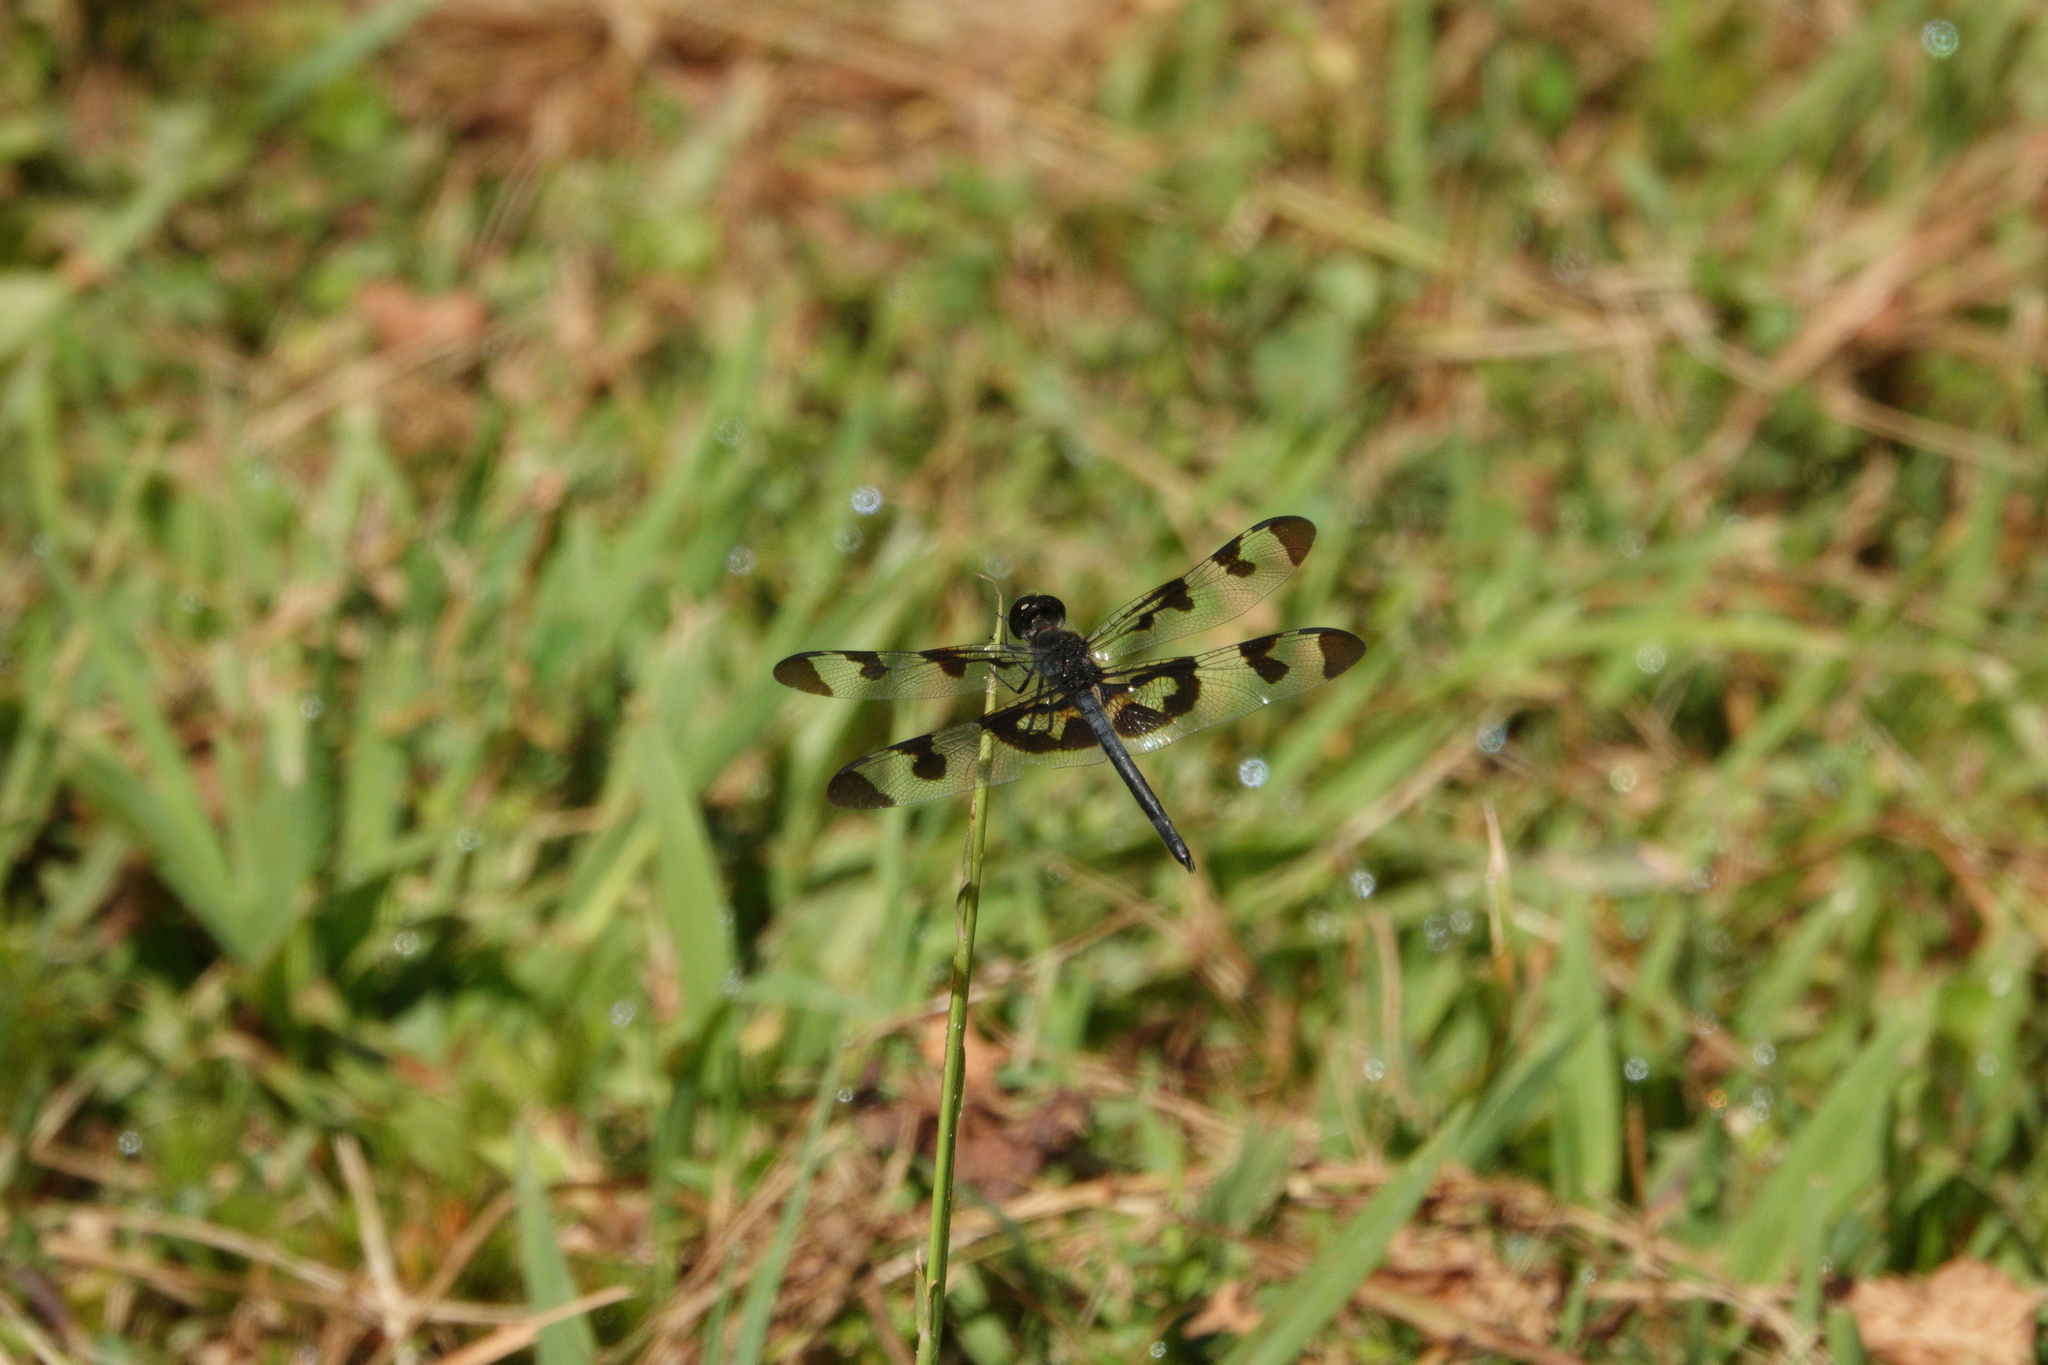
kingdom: Animalia
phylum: Arthropoda
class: Insecta
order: Odonata
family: Libellulidae
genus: Celithemis
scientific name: Celithemis fasciata
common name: Banded pennant
